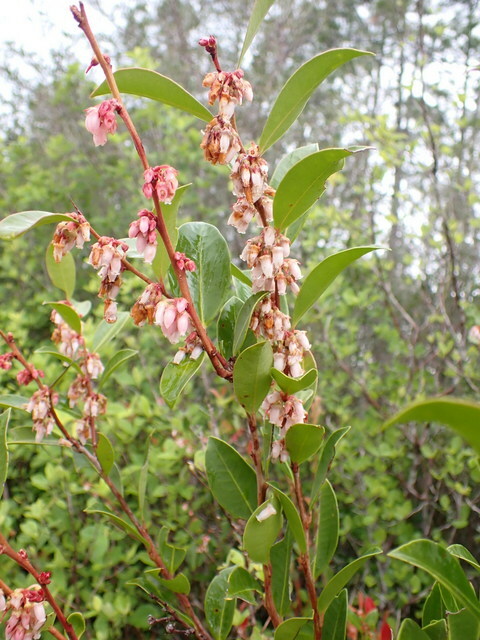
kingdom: Plantae
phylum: Tracheophyta
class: Magnoliopsida
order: Ericales
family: Ericaceae
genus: Lyonia
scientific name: Lyonia lucida
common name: Fetterbush
